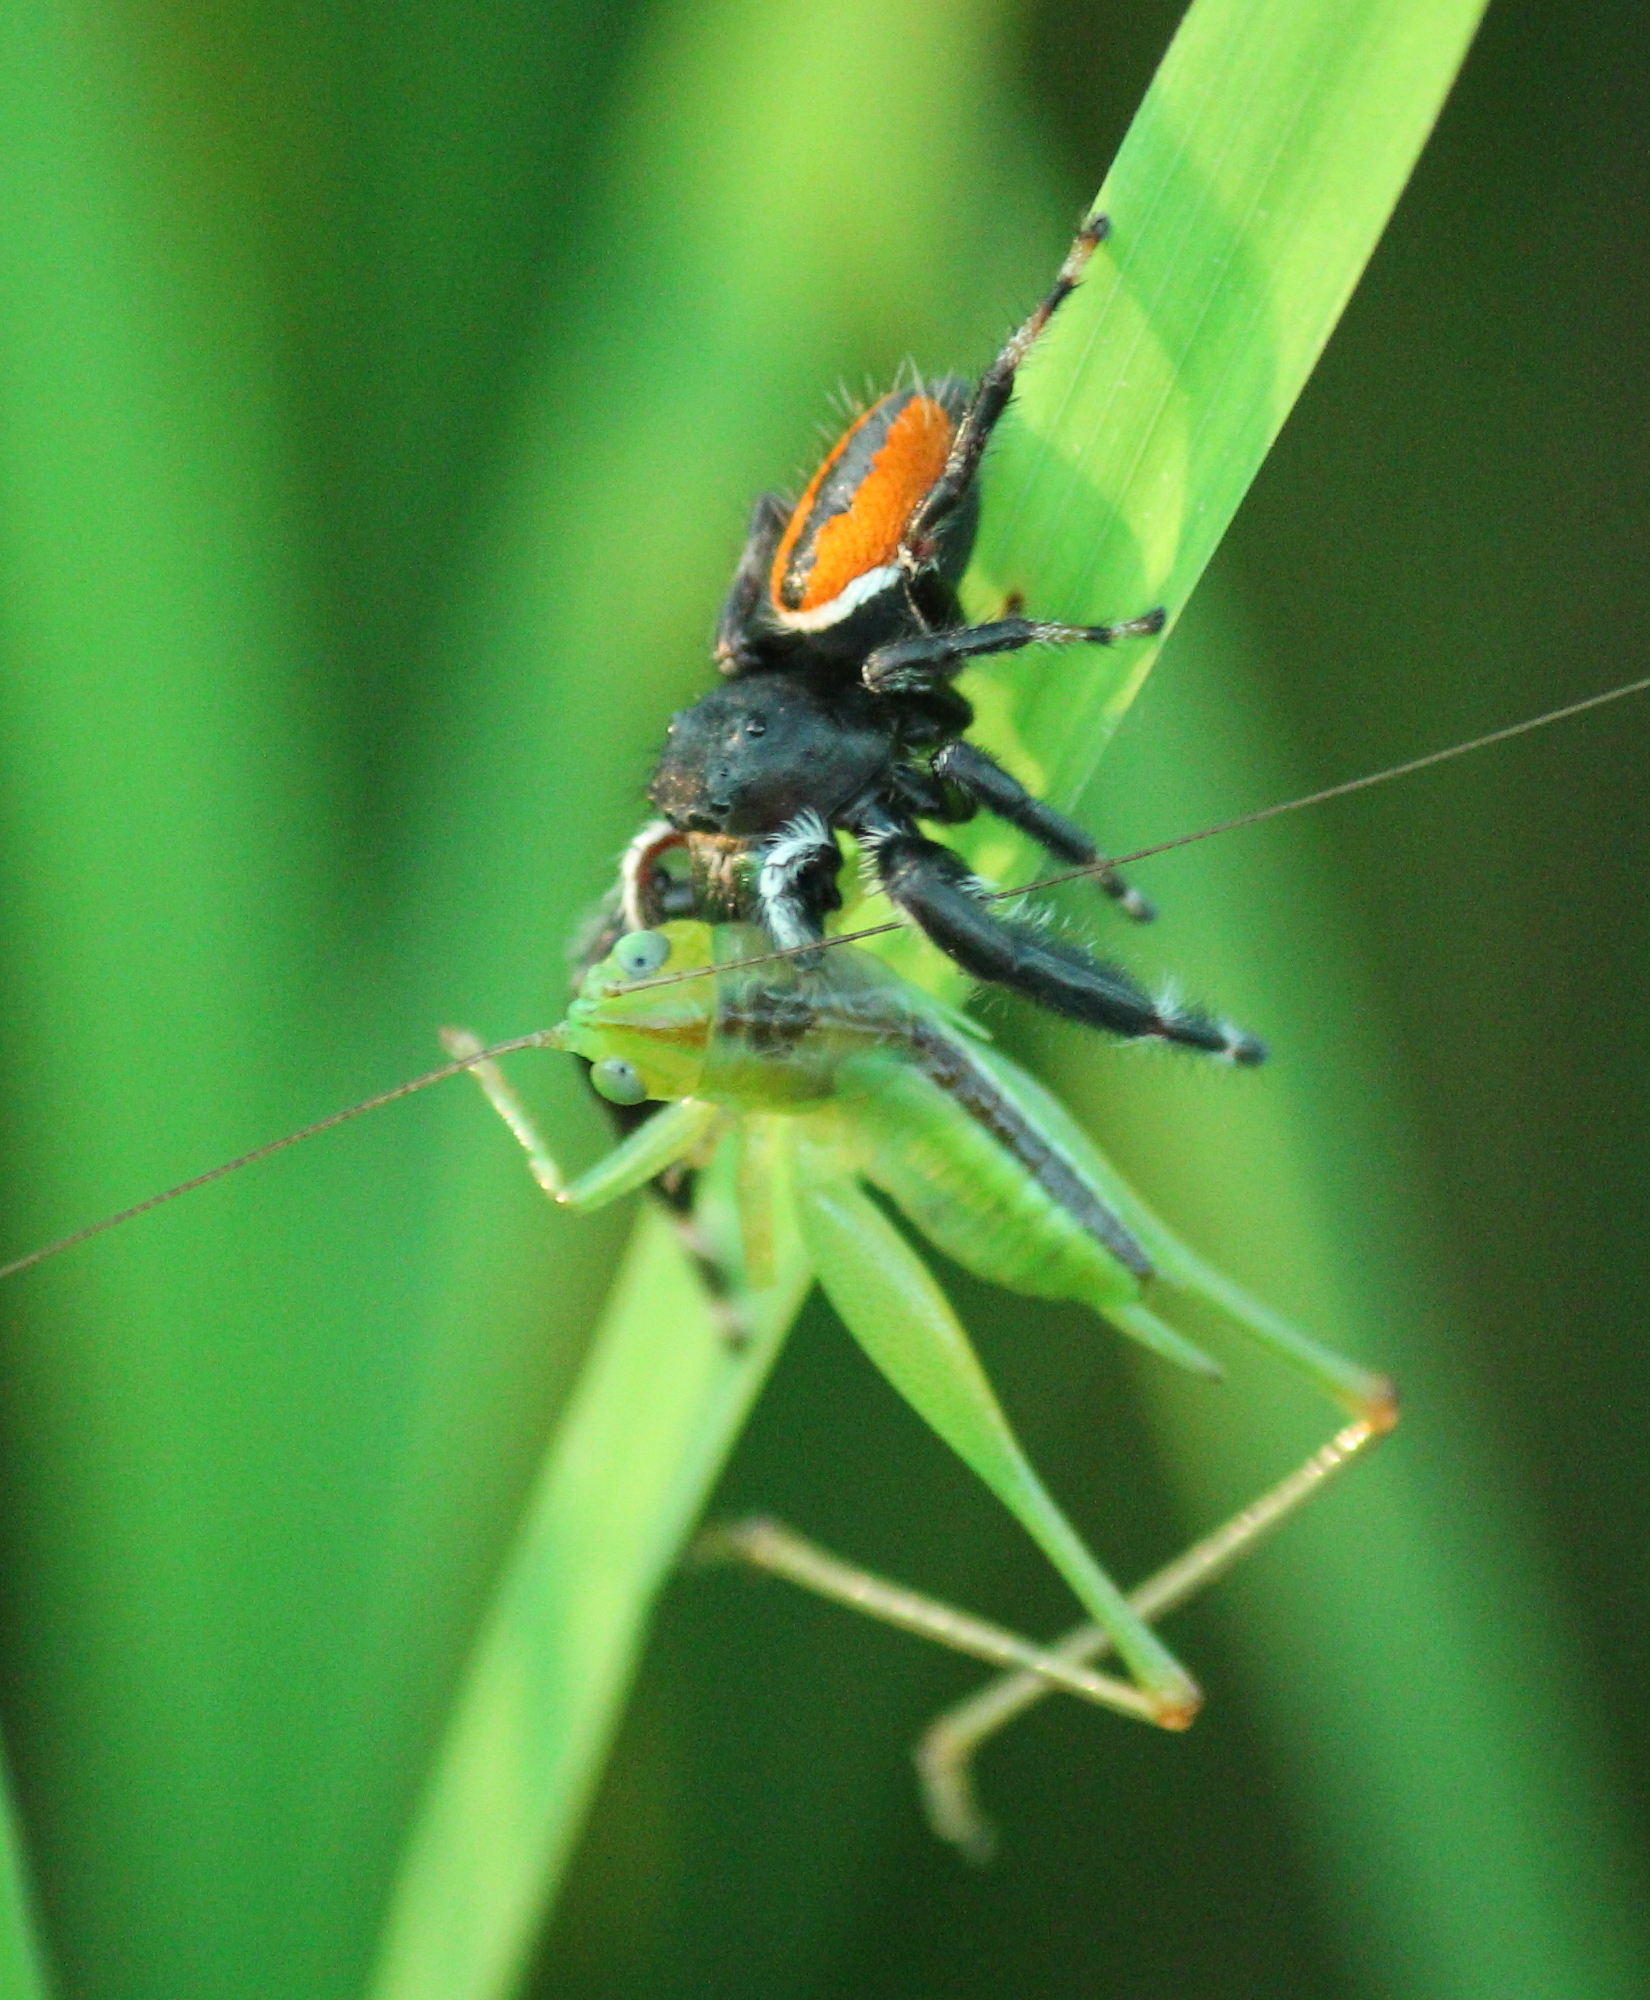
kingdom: Animalia
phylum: Arthropoda
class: Arachnida
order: Araneae
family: Salticidae
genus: Phidippus
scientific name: Phidippus clarus
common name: Brilliant jumping spider
